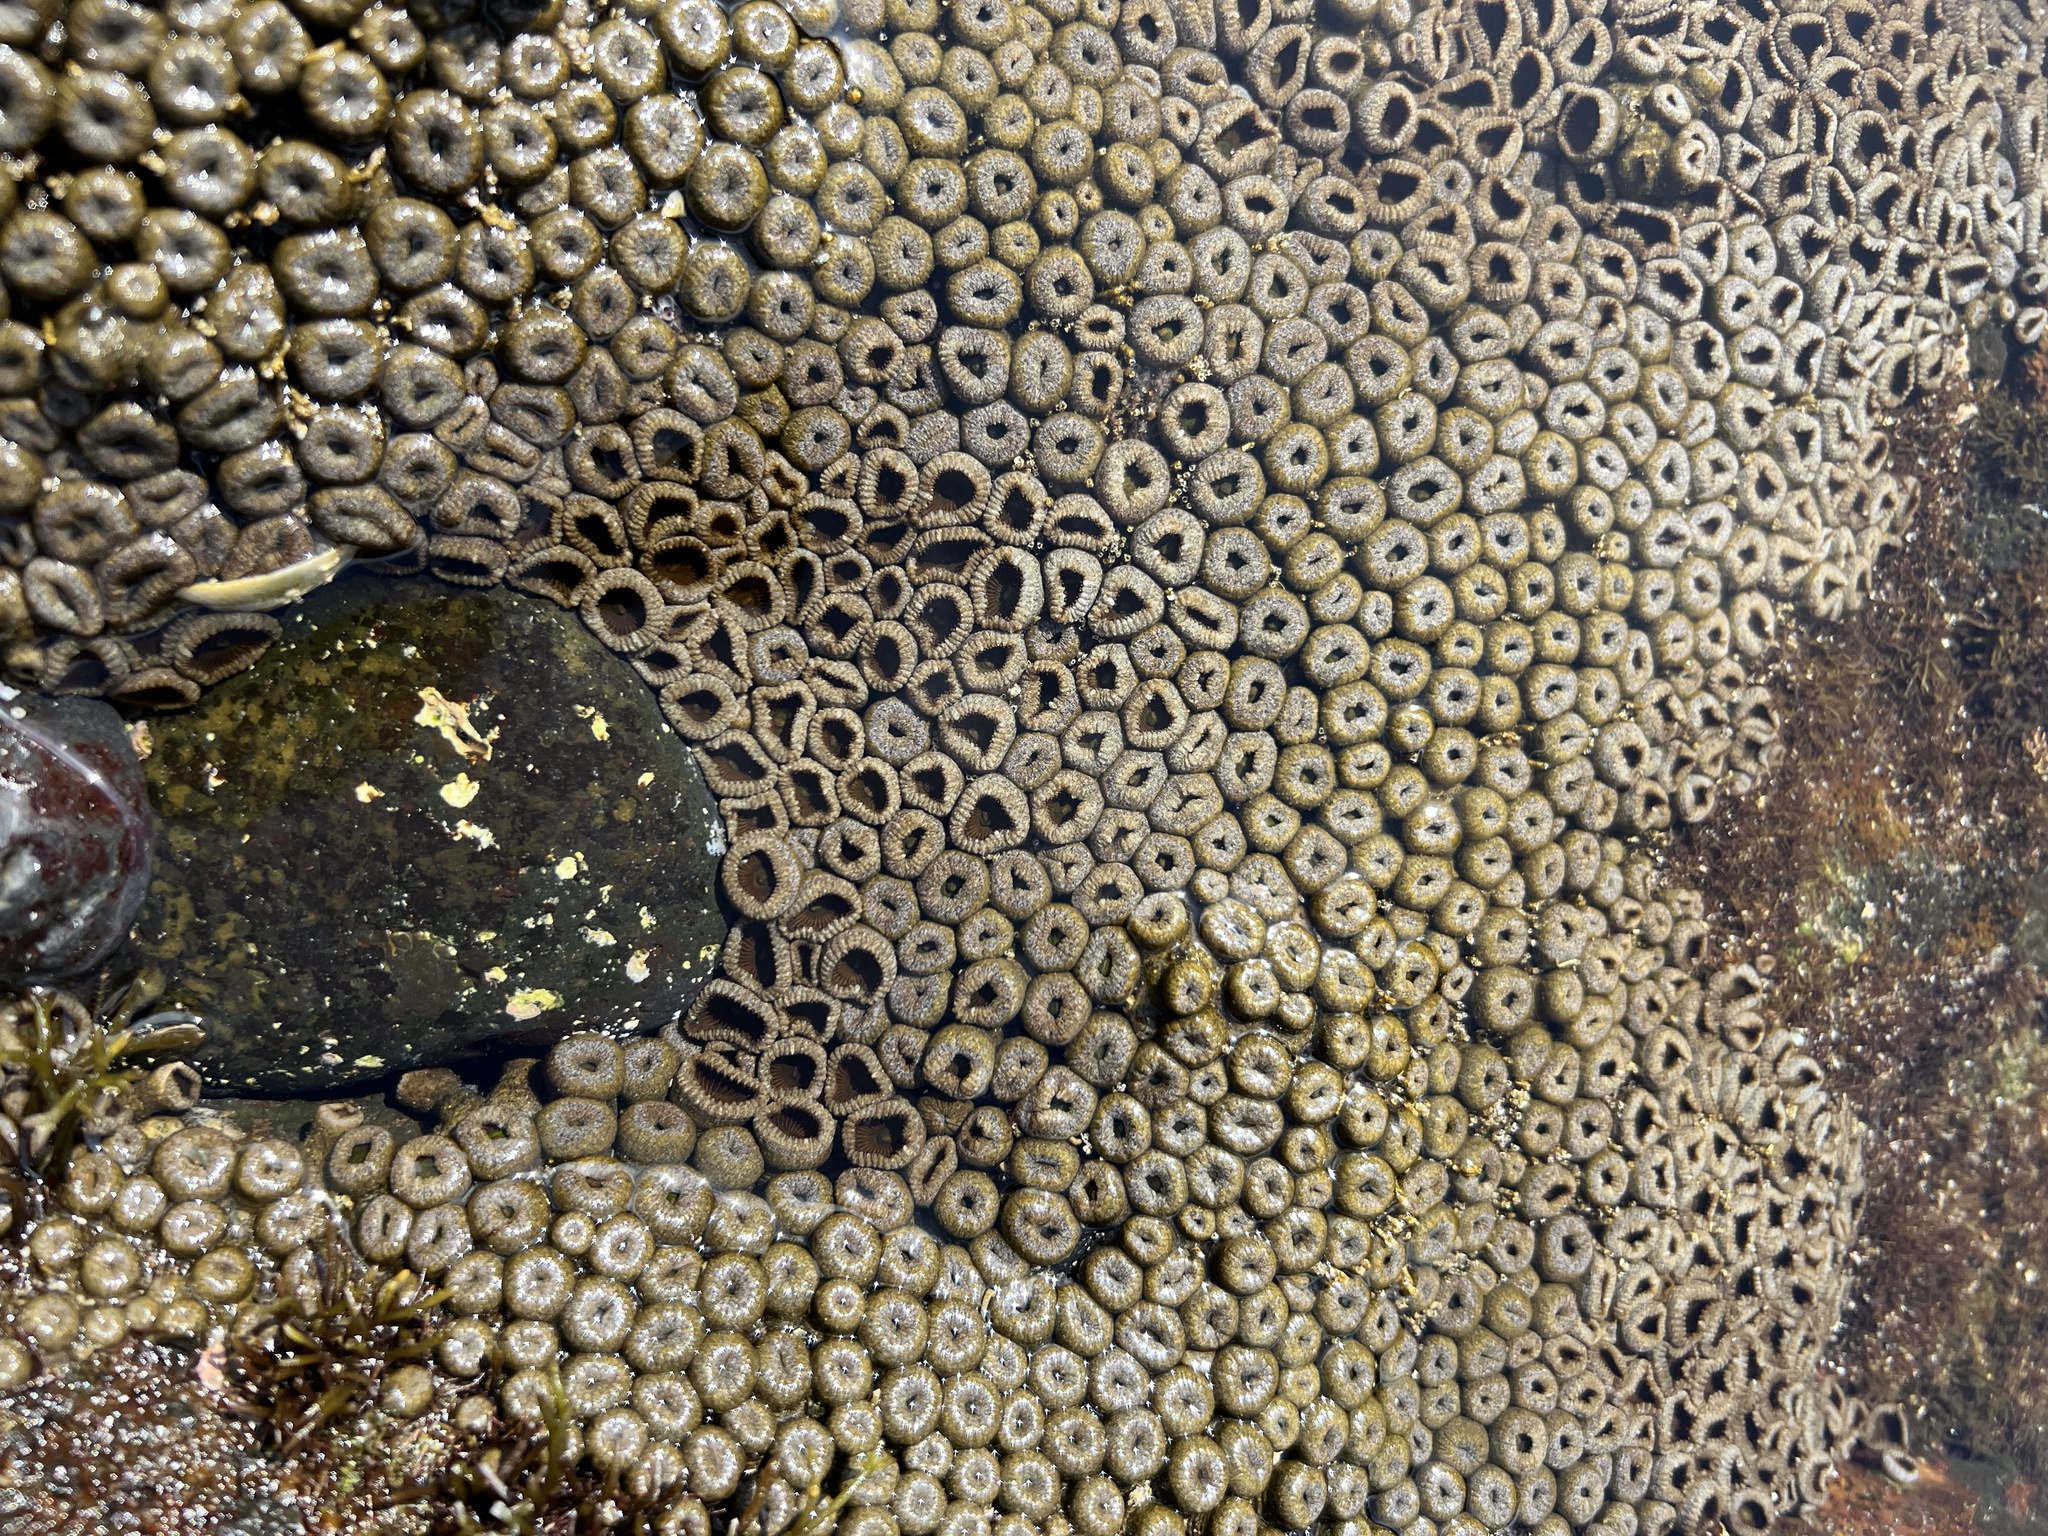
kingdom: Animalia
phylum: Cnidaria
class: Anthozoa
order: Zoantharia
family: Sphenopidae
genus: Palythoa
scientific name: Palythoa mutuki
